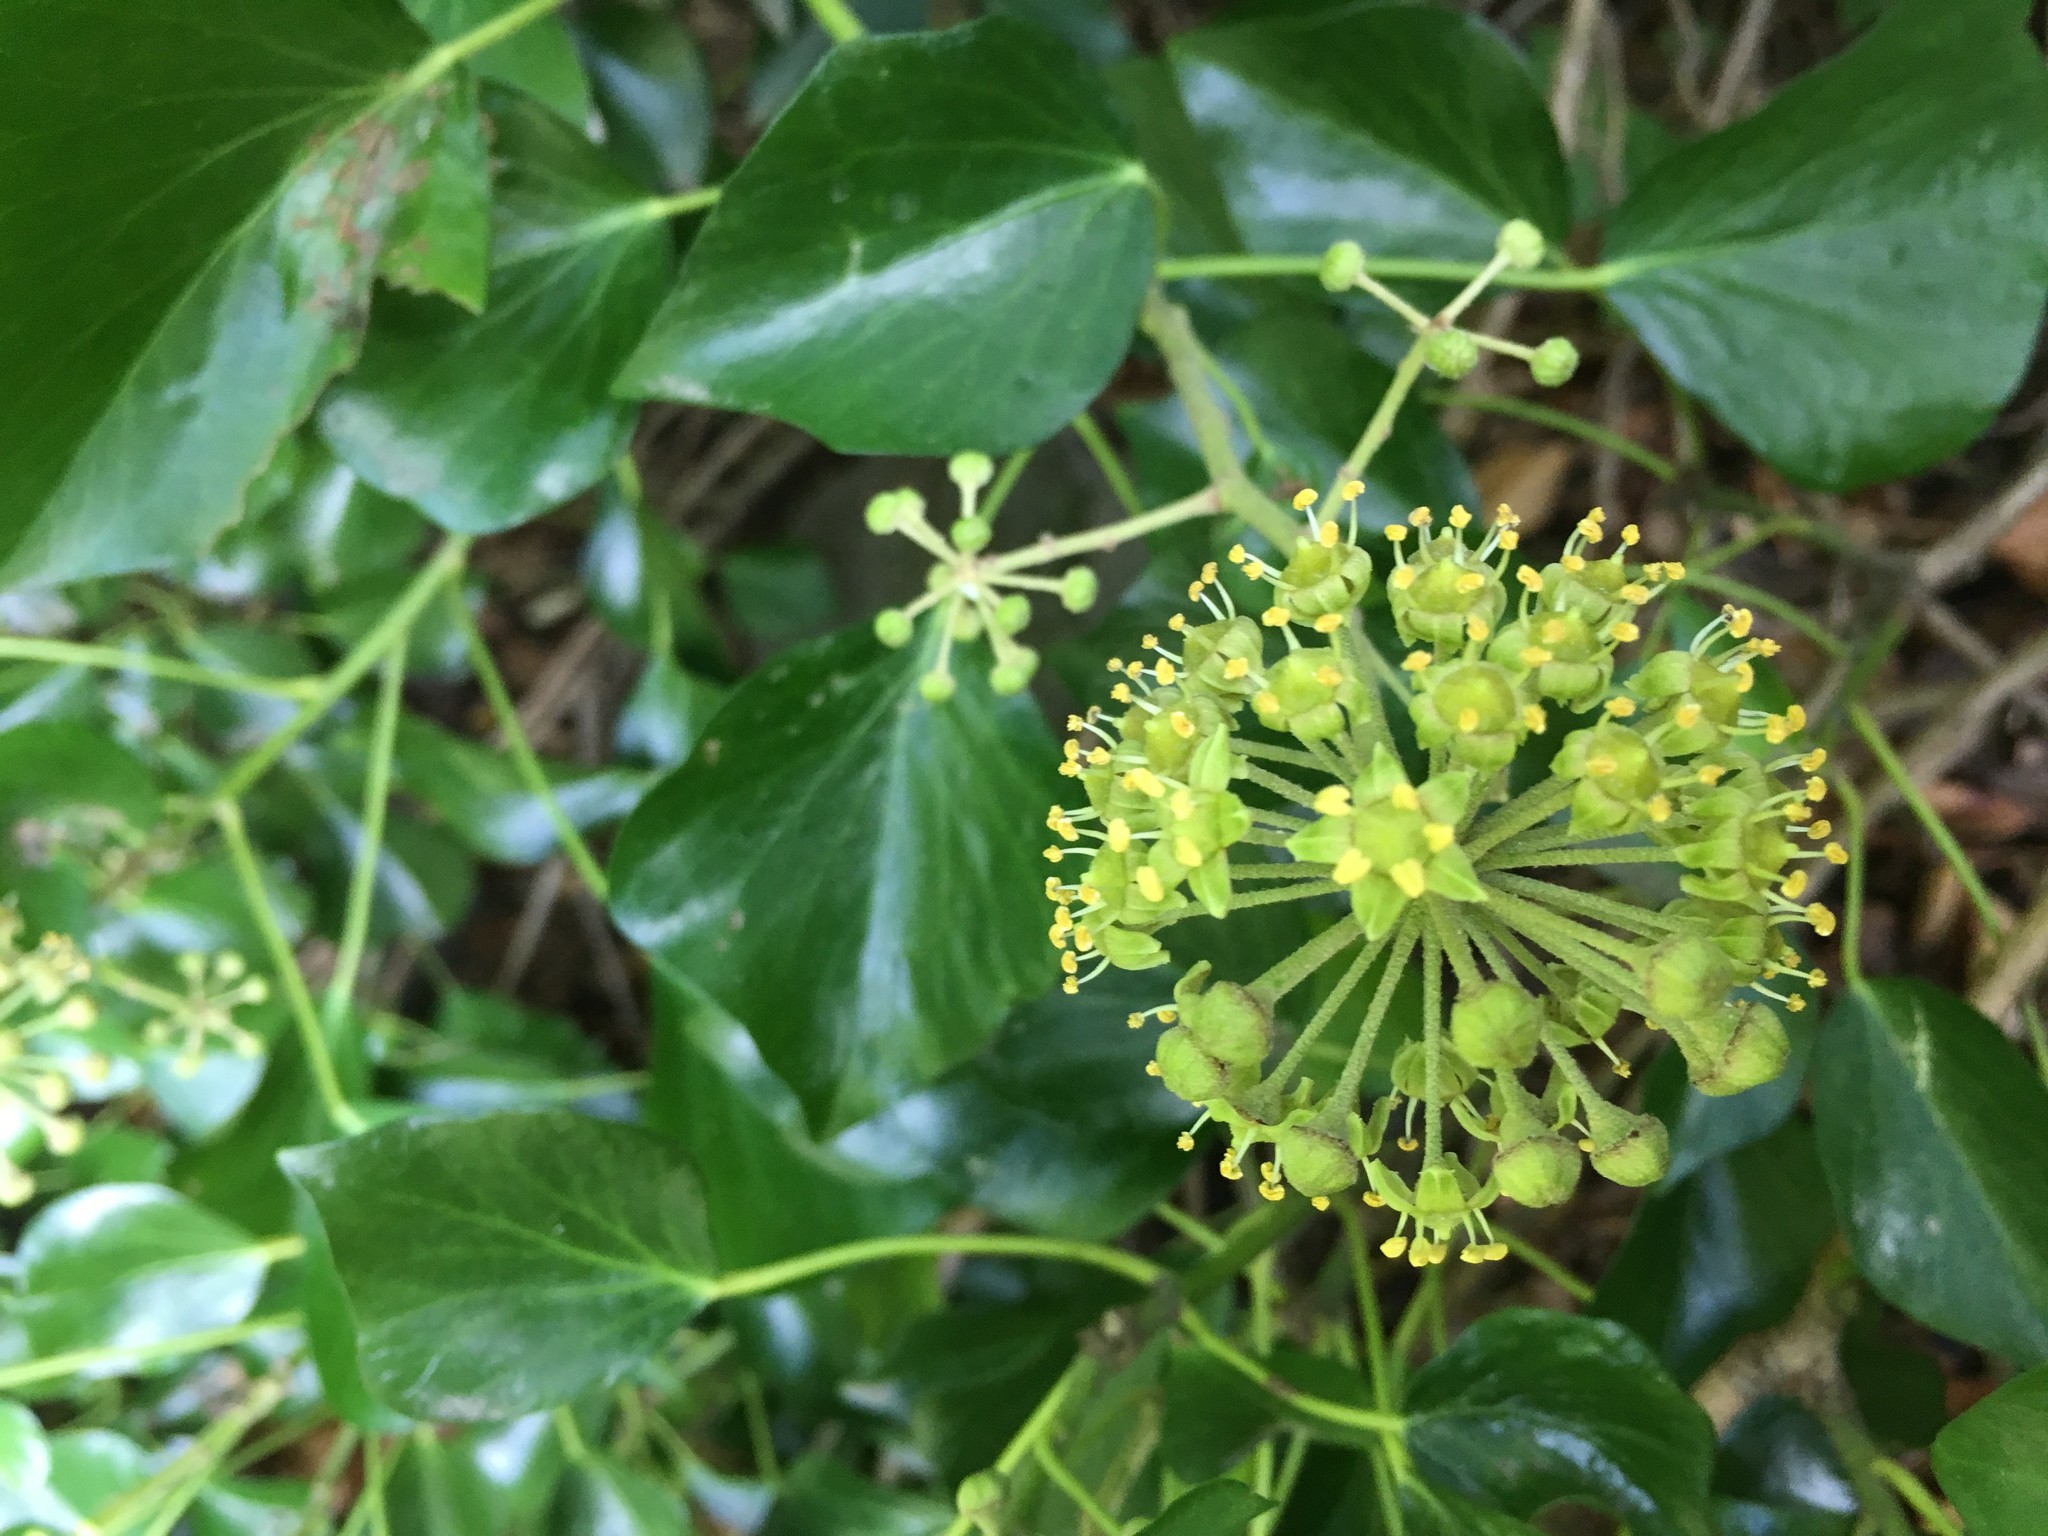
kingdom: Plantae
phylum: Tracheophyta
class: Magnoliopsida
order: Apiales
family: Araliaceae
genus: Hedera
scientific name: Hedera helix
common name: Ivy
